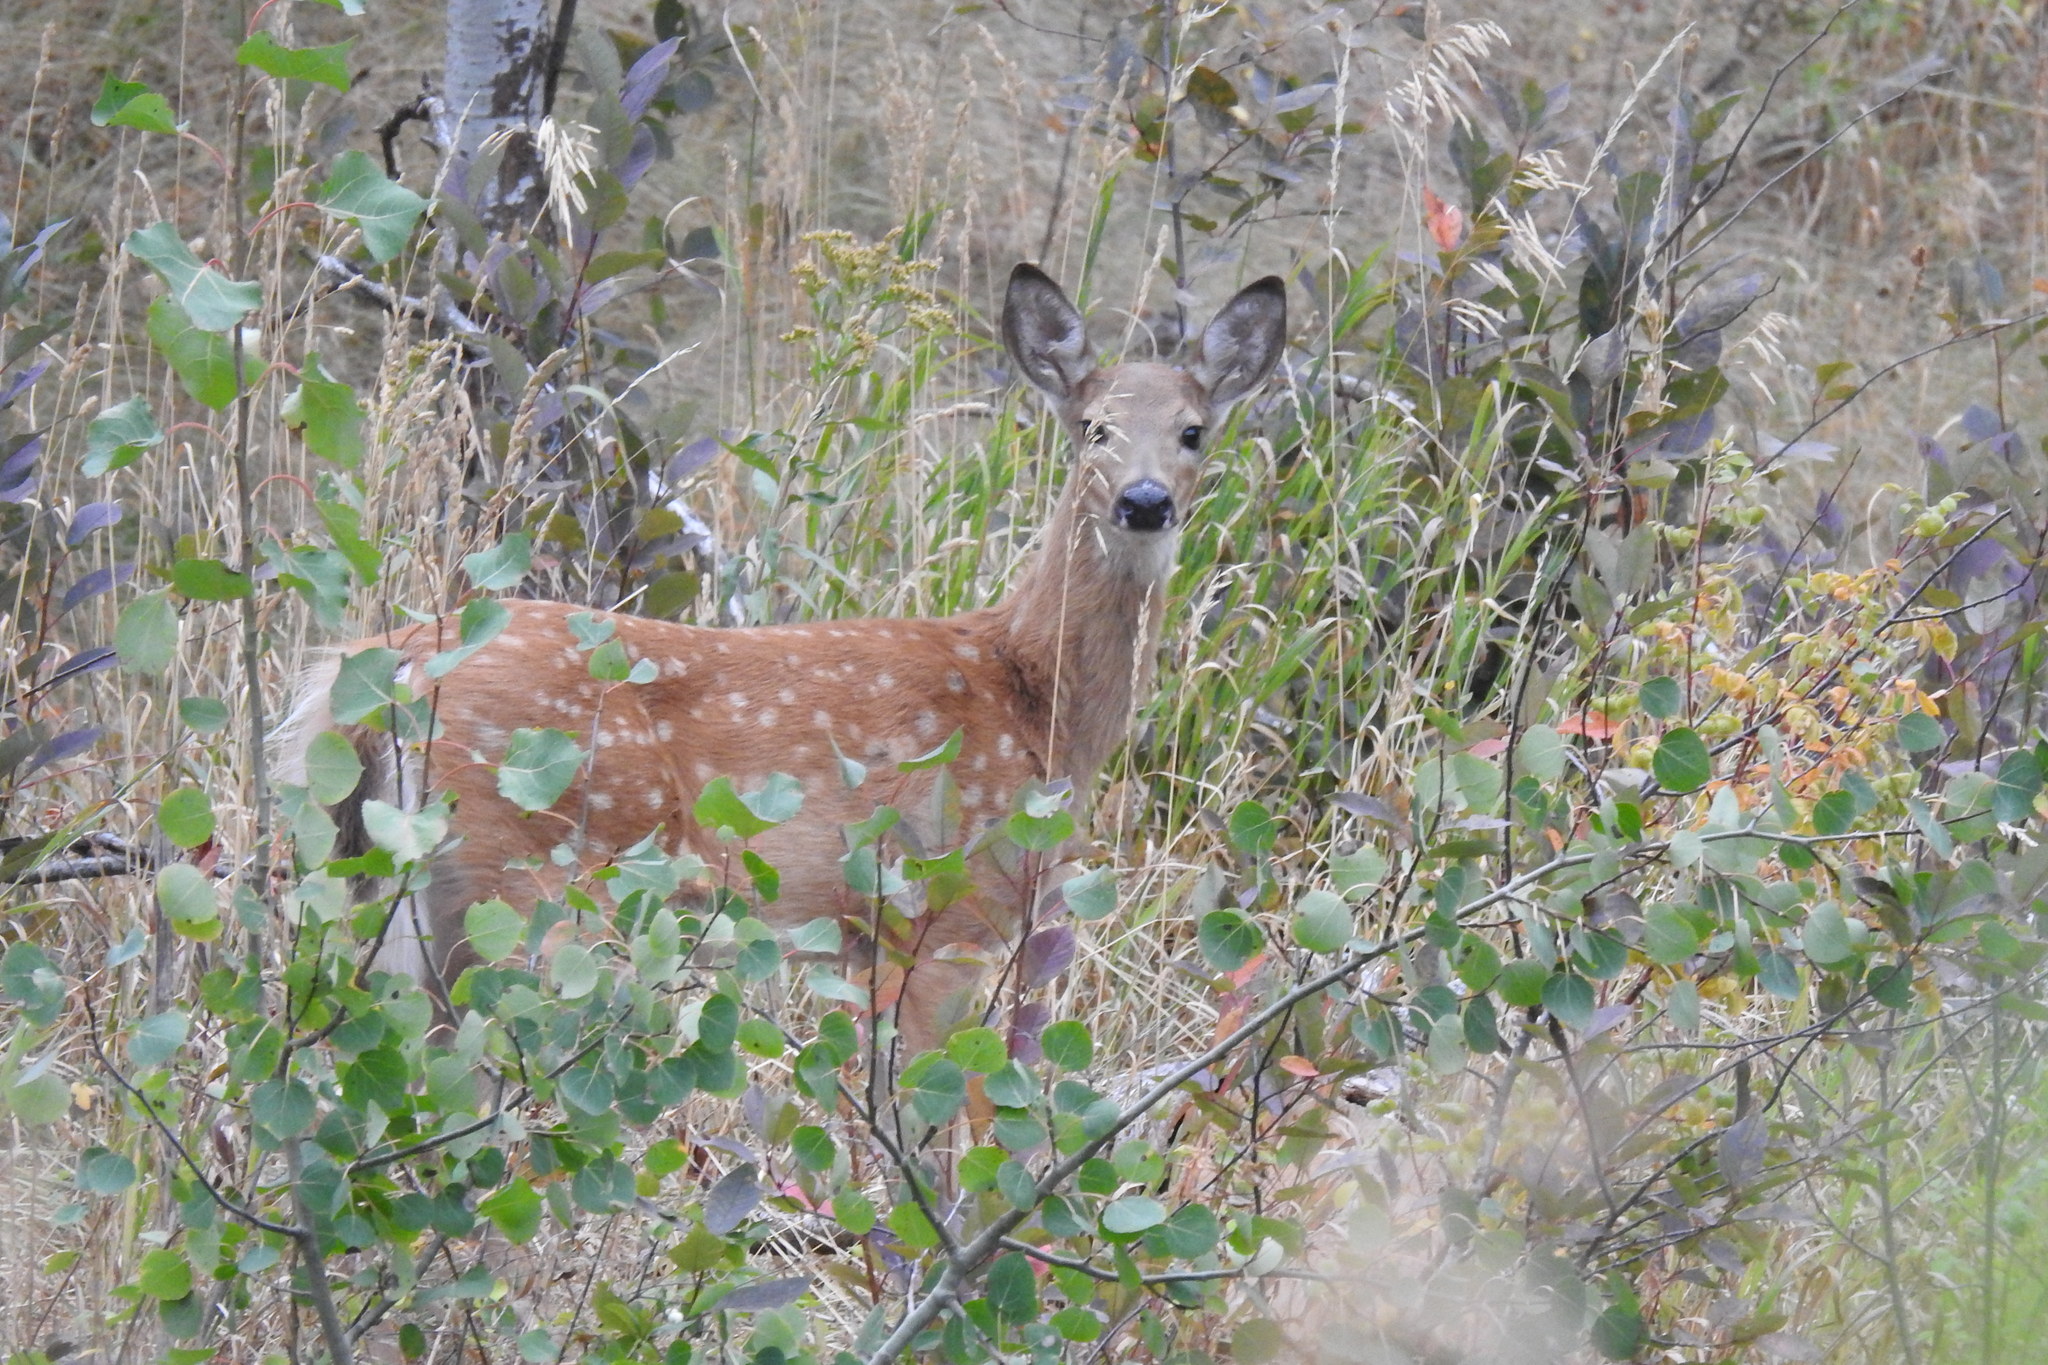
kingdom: Animalia
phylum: Chordata
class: Mammalia
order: Artiodactyla
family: Cervidae
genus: Odocoileus
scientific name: Odocoileus virginianus
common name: White-tailed deer
